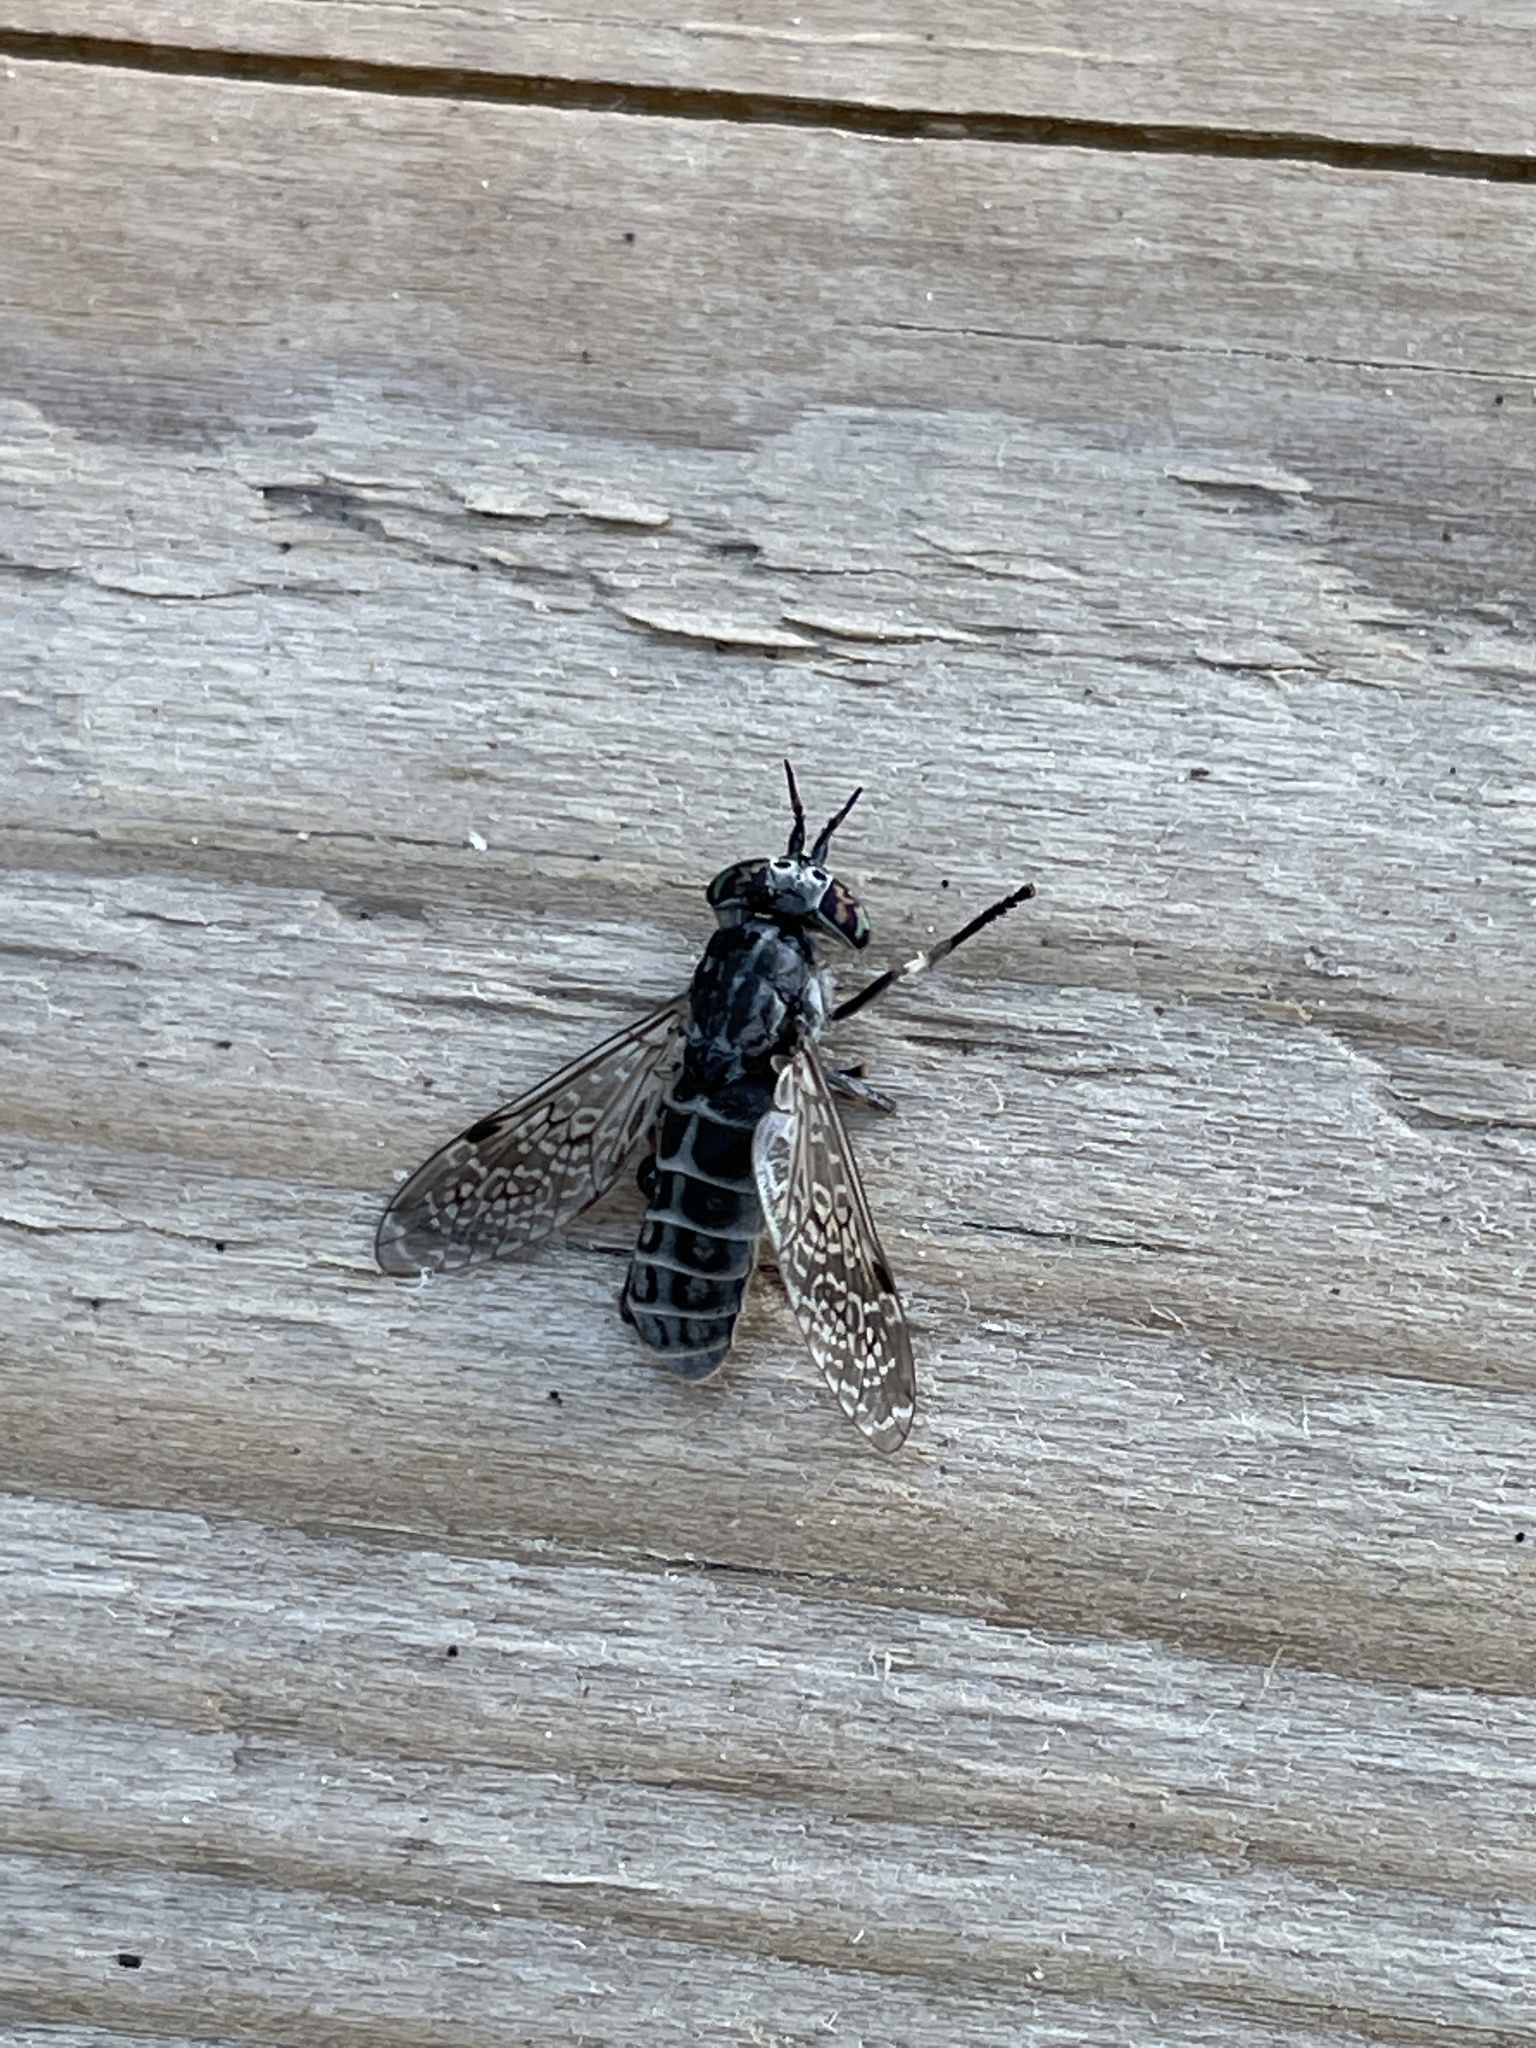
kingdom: Animalia
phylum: Arthropoda
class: Insecta
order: Diptera
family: Tabanidae
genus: Haematopota
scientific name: Haematopota pluvialis
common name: Common horse fly
